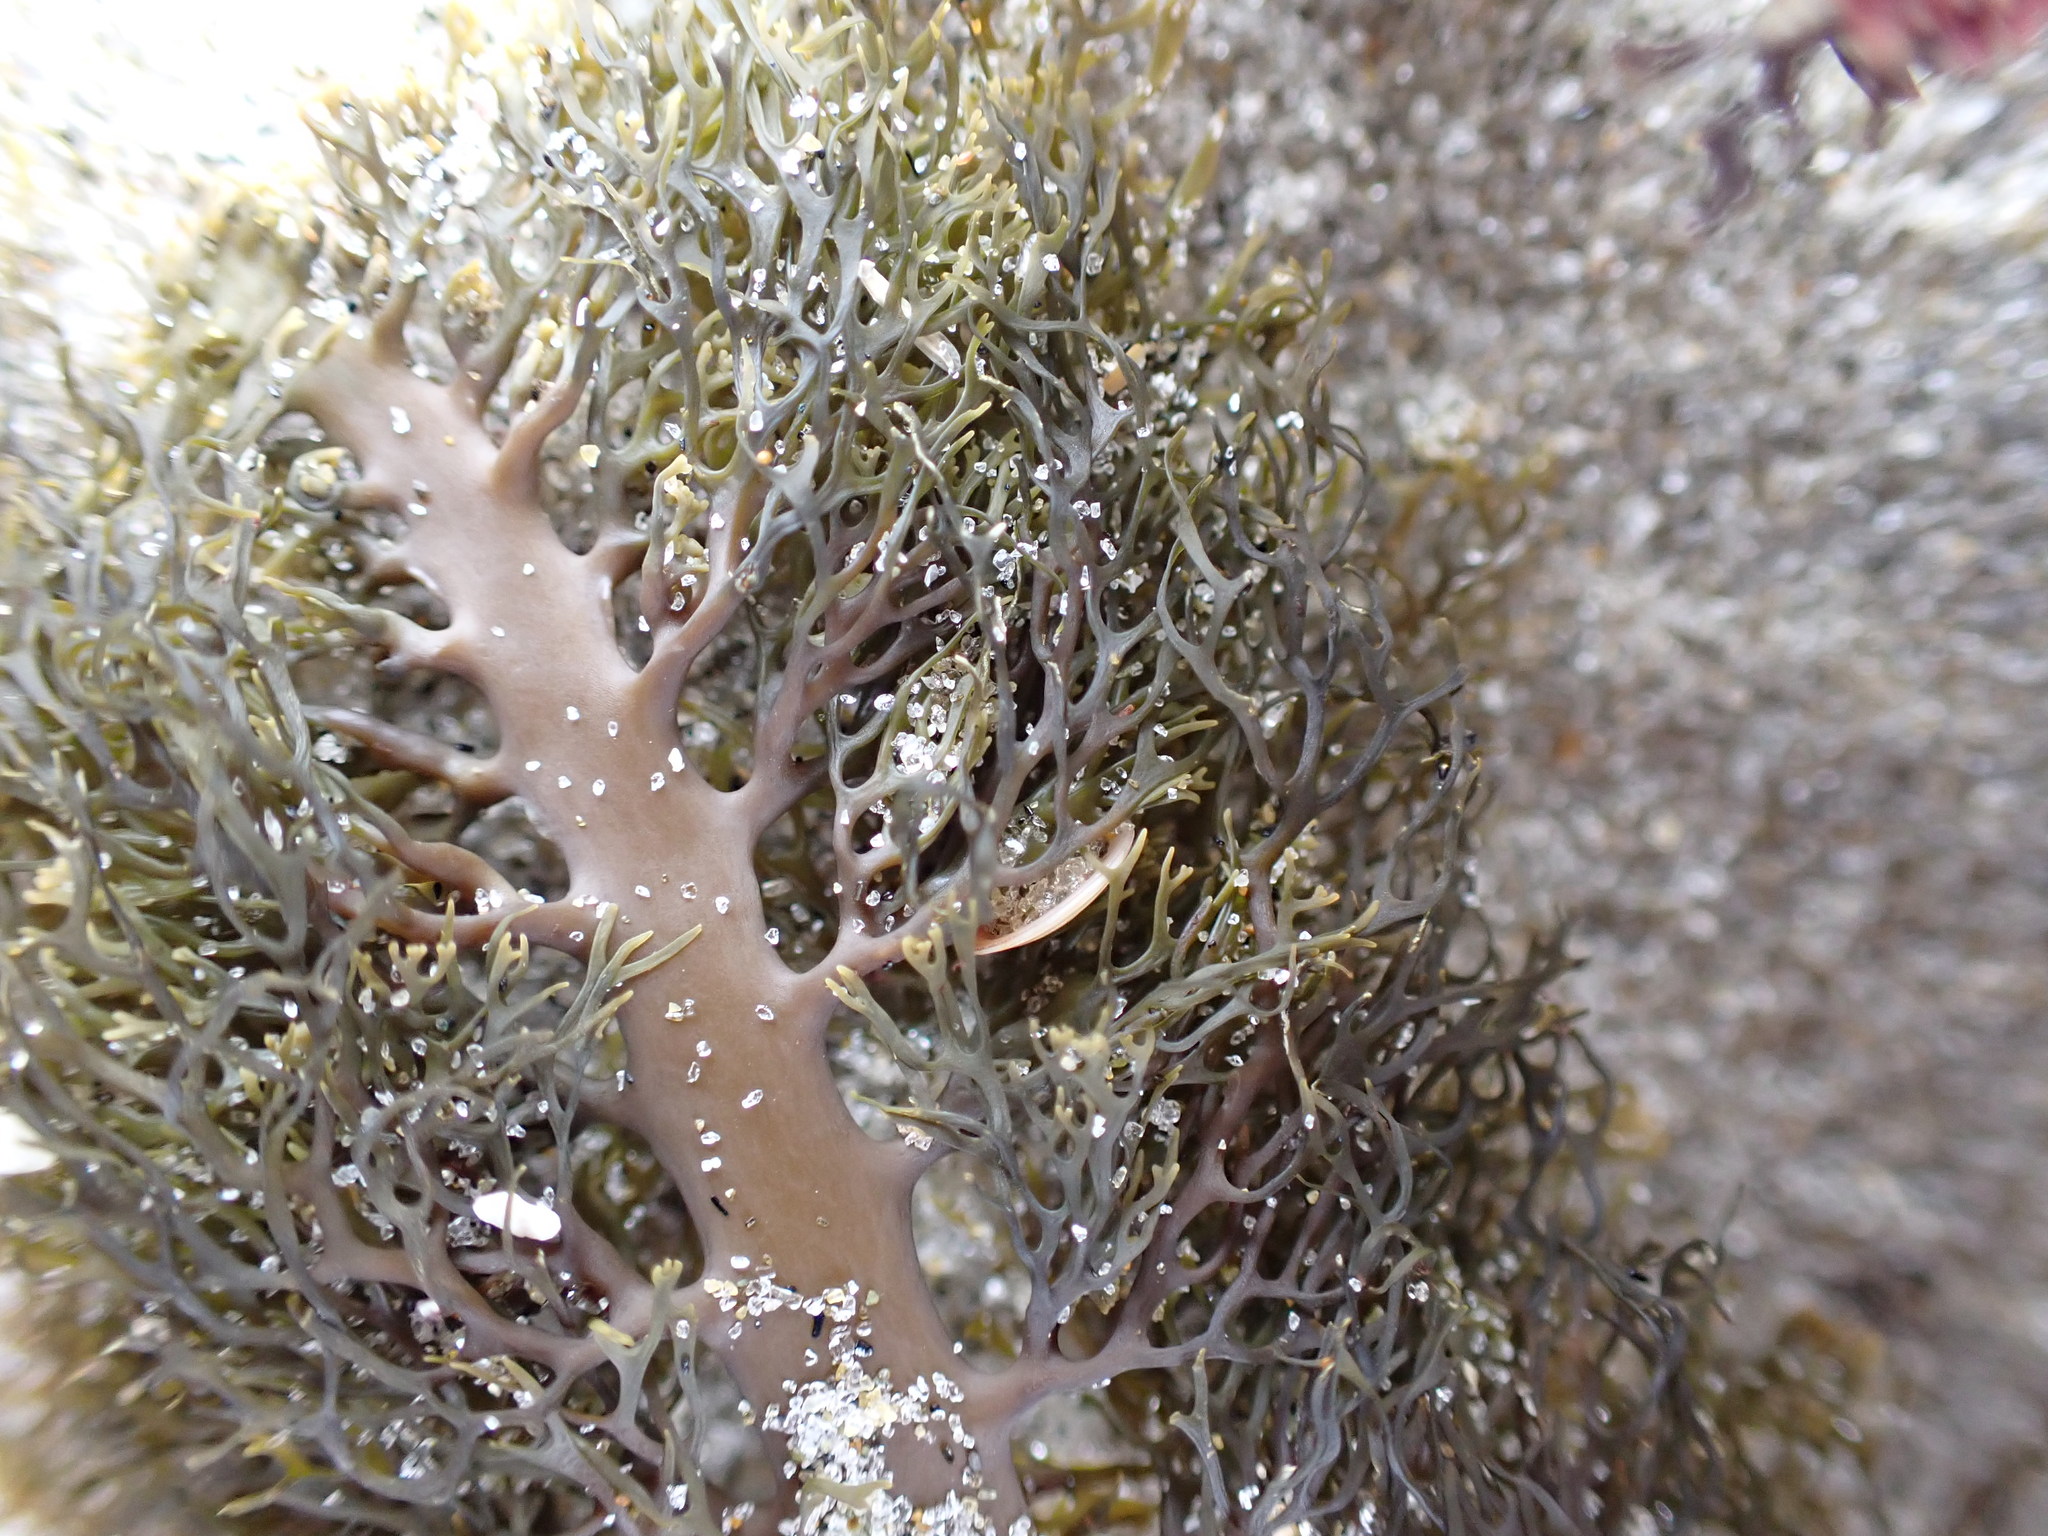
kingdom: Chromista
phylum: Ochrophyta
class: Phaeophyceae
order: Fucales
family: Sargassaceae
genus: Carpophyllum
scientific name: Carpophyllum plumosum
